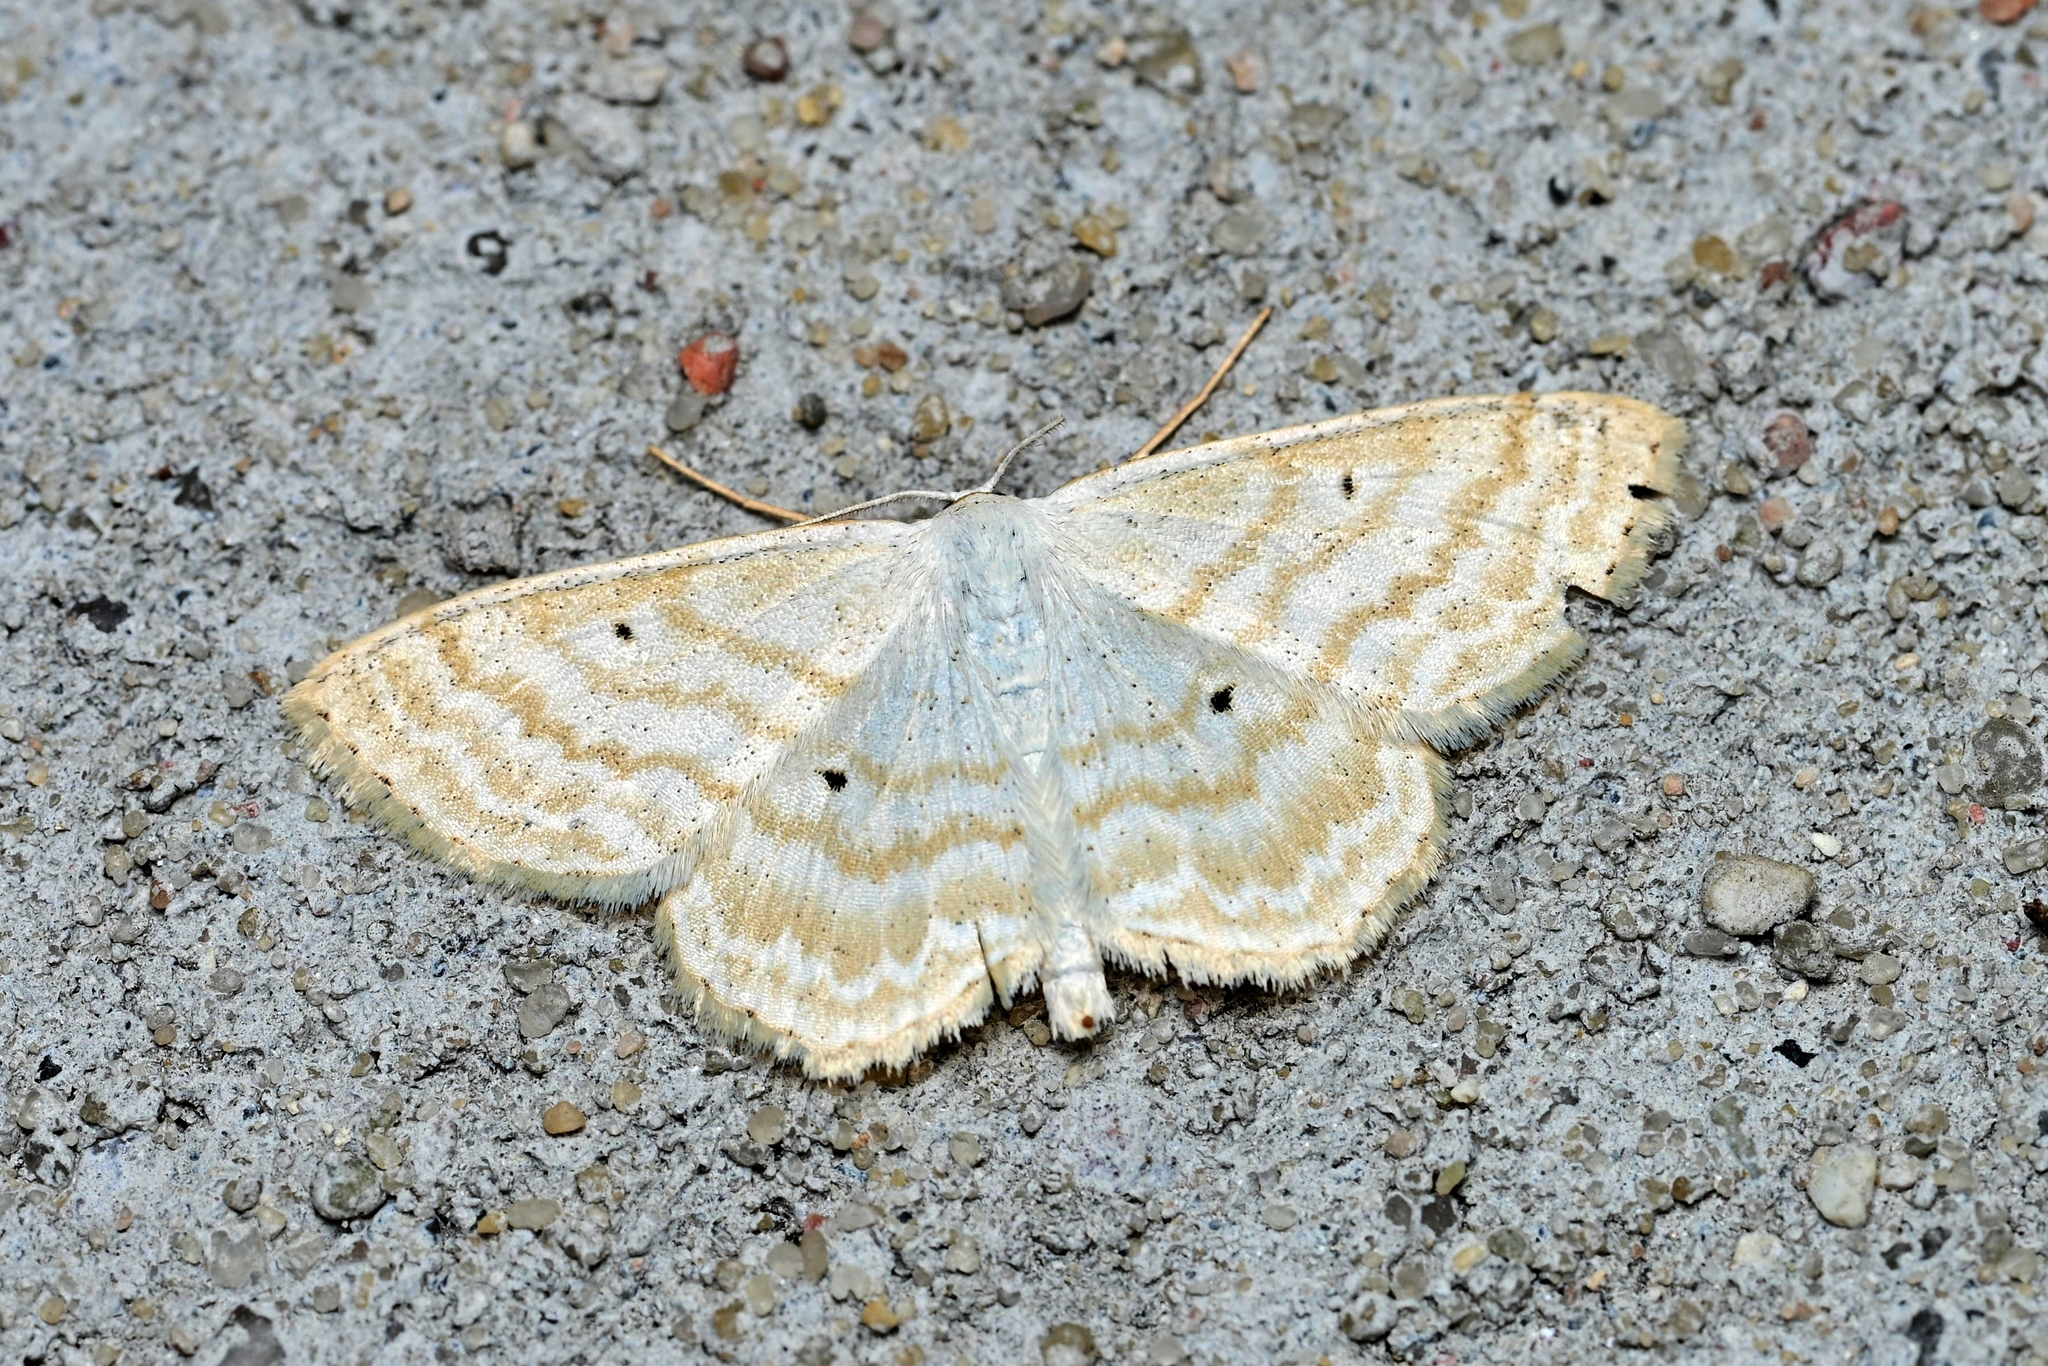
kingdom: Animalia
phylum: Arthropoda
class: Insecta
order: Lepidoptera
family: Geometridae
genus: Scopula
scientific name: Scopula immutata
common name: Lesser cream wave
